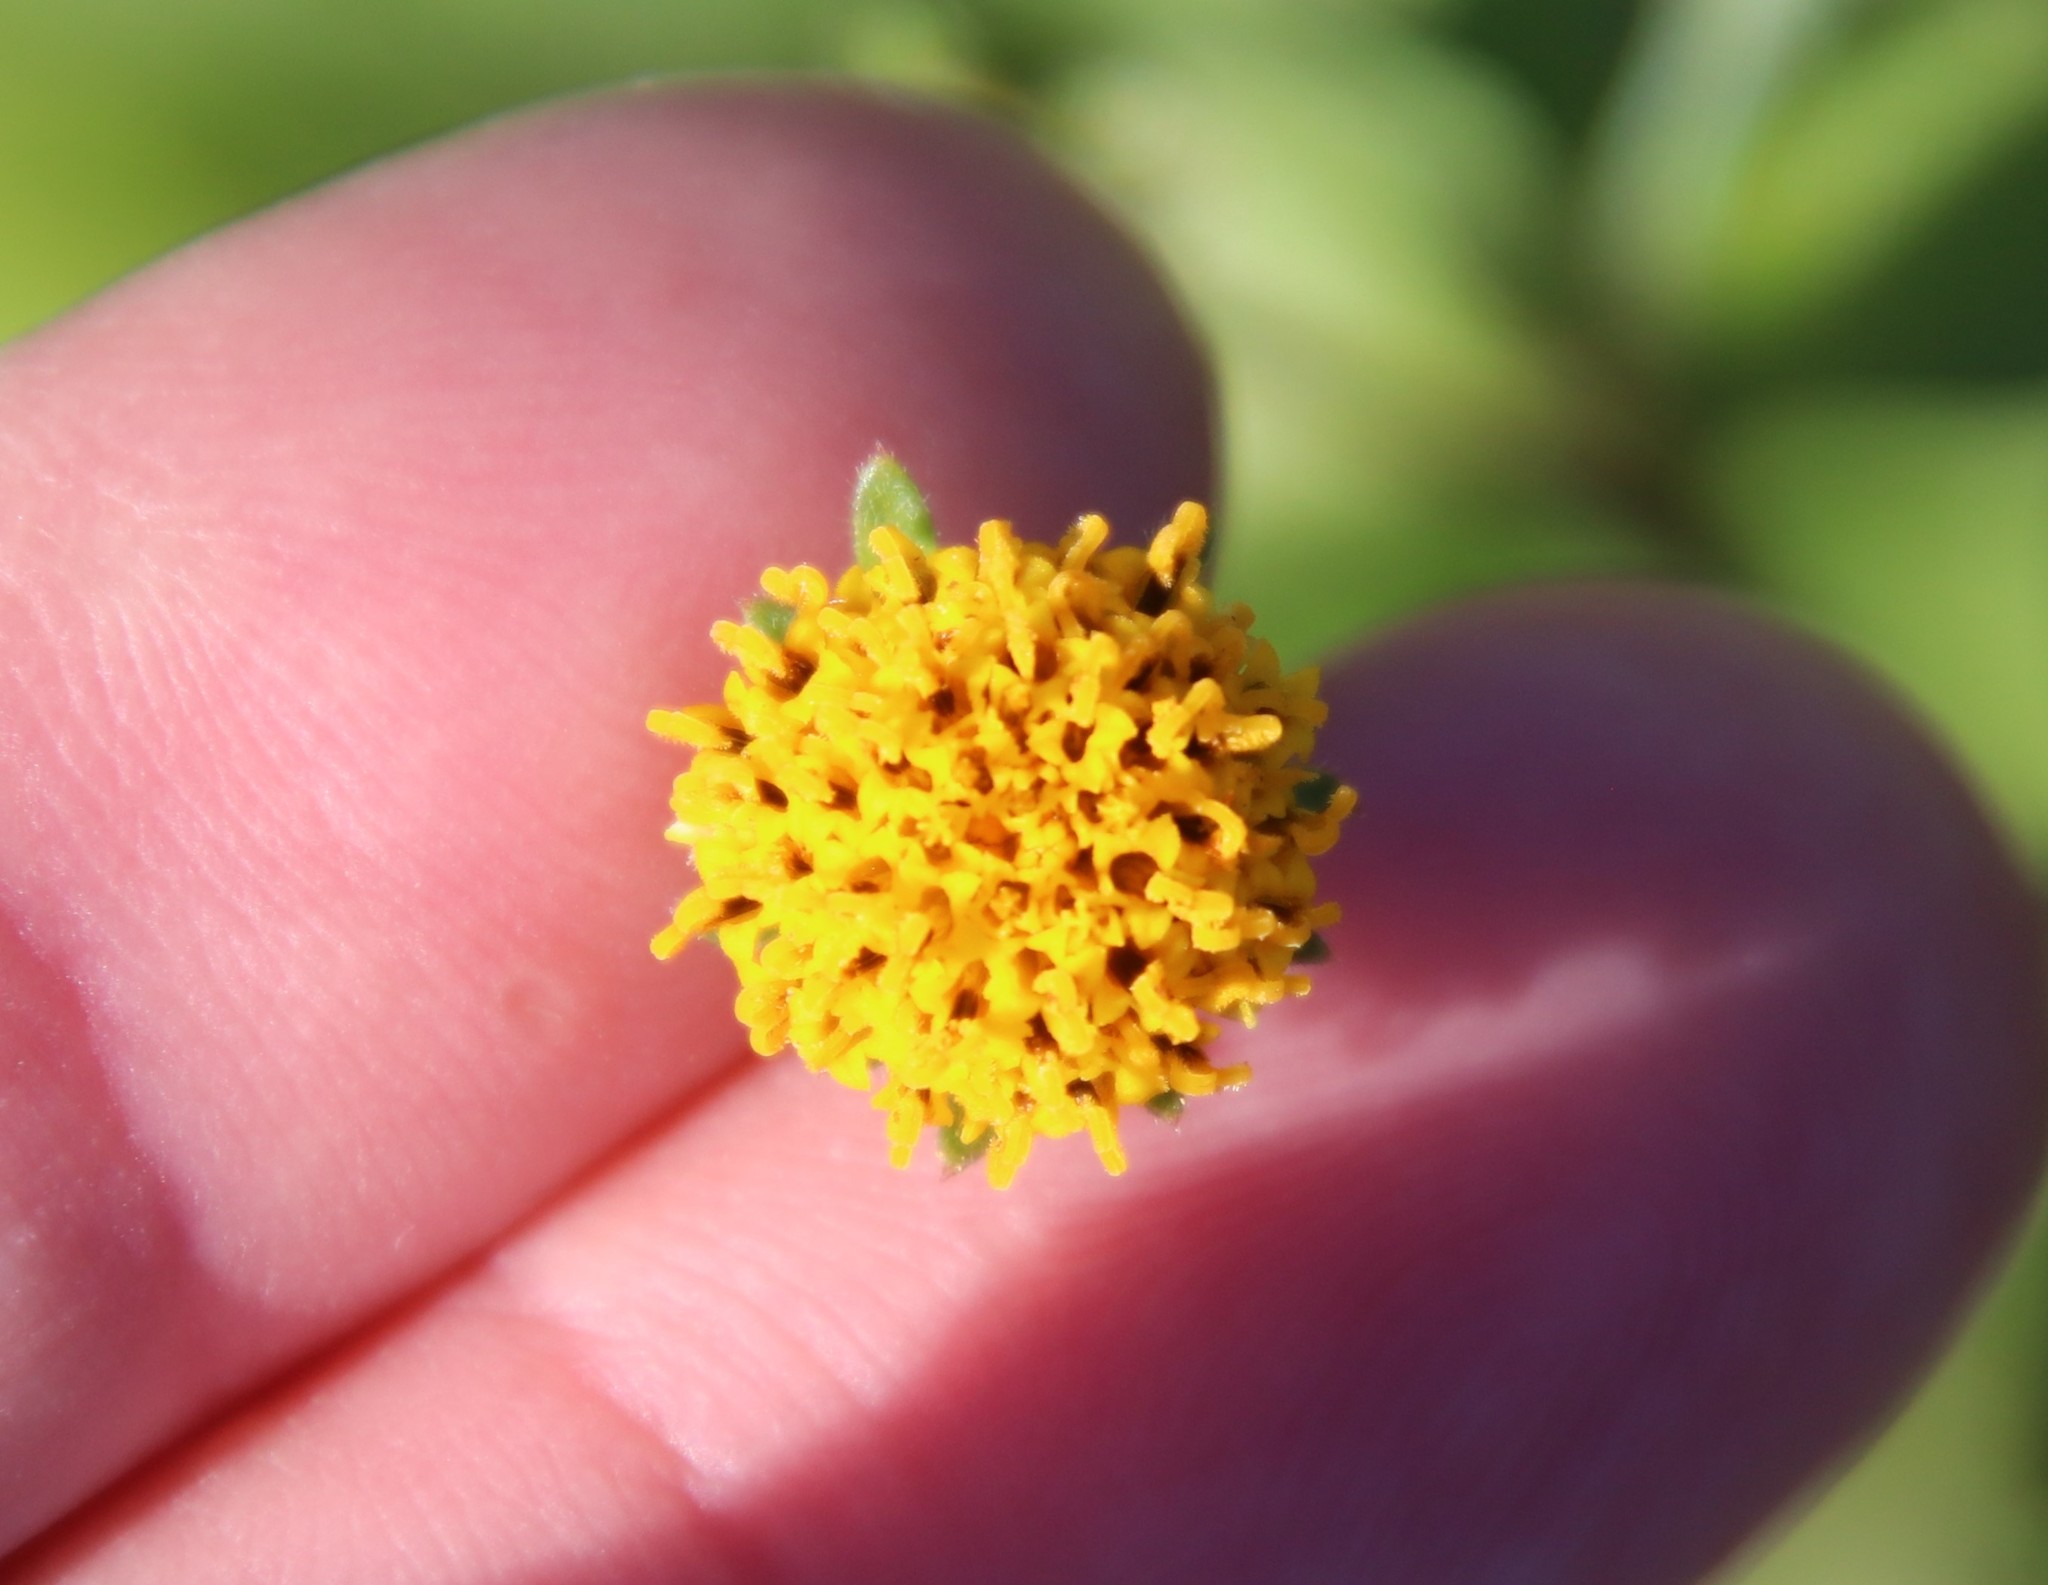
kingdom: Plantae
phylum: Tracheophyta
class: Magnoliopsida
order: Asterales
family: Asteraceae
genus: Bidens
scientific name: Bidens pilosa
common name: Black-jack
